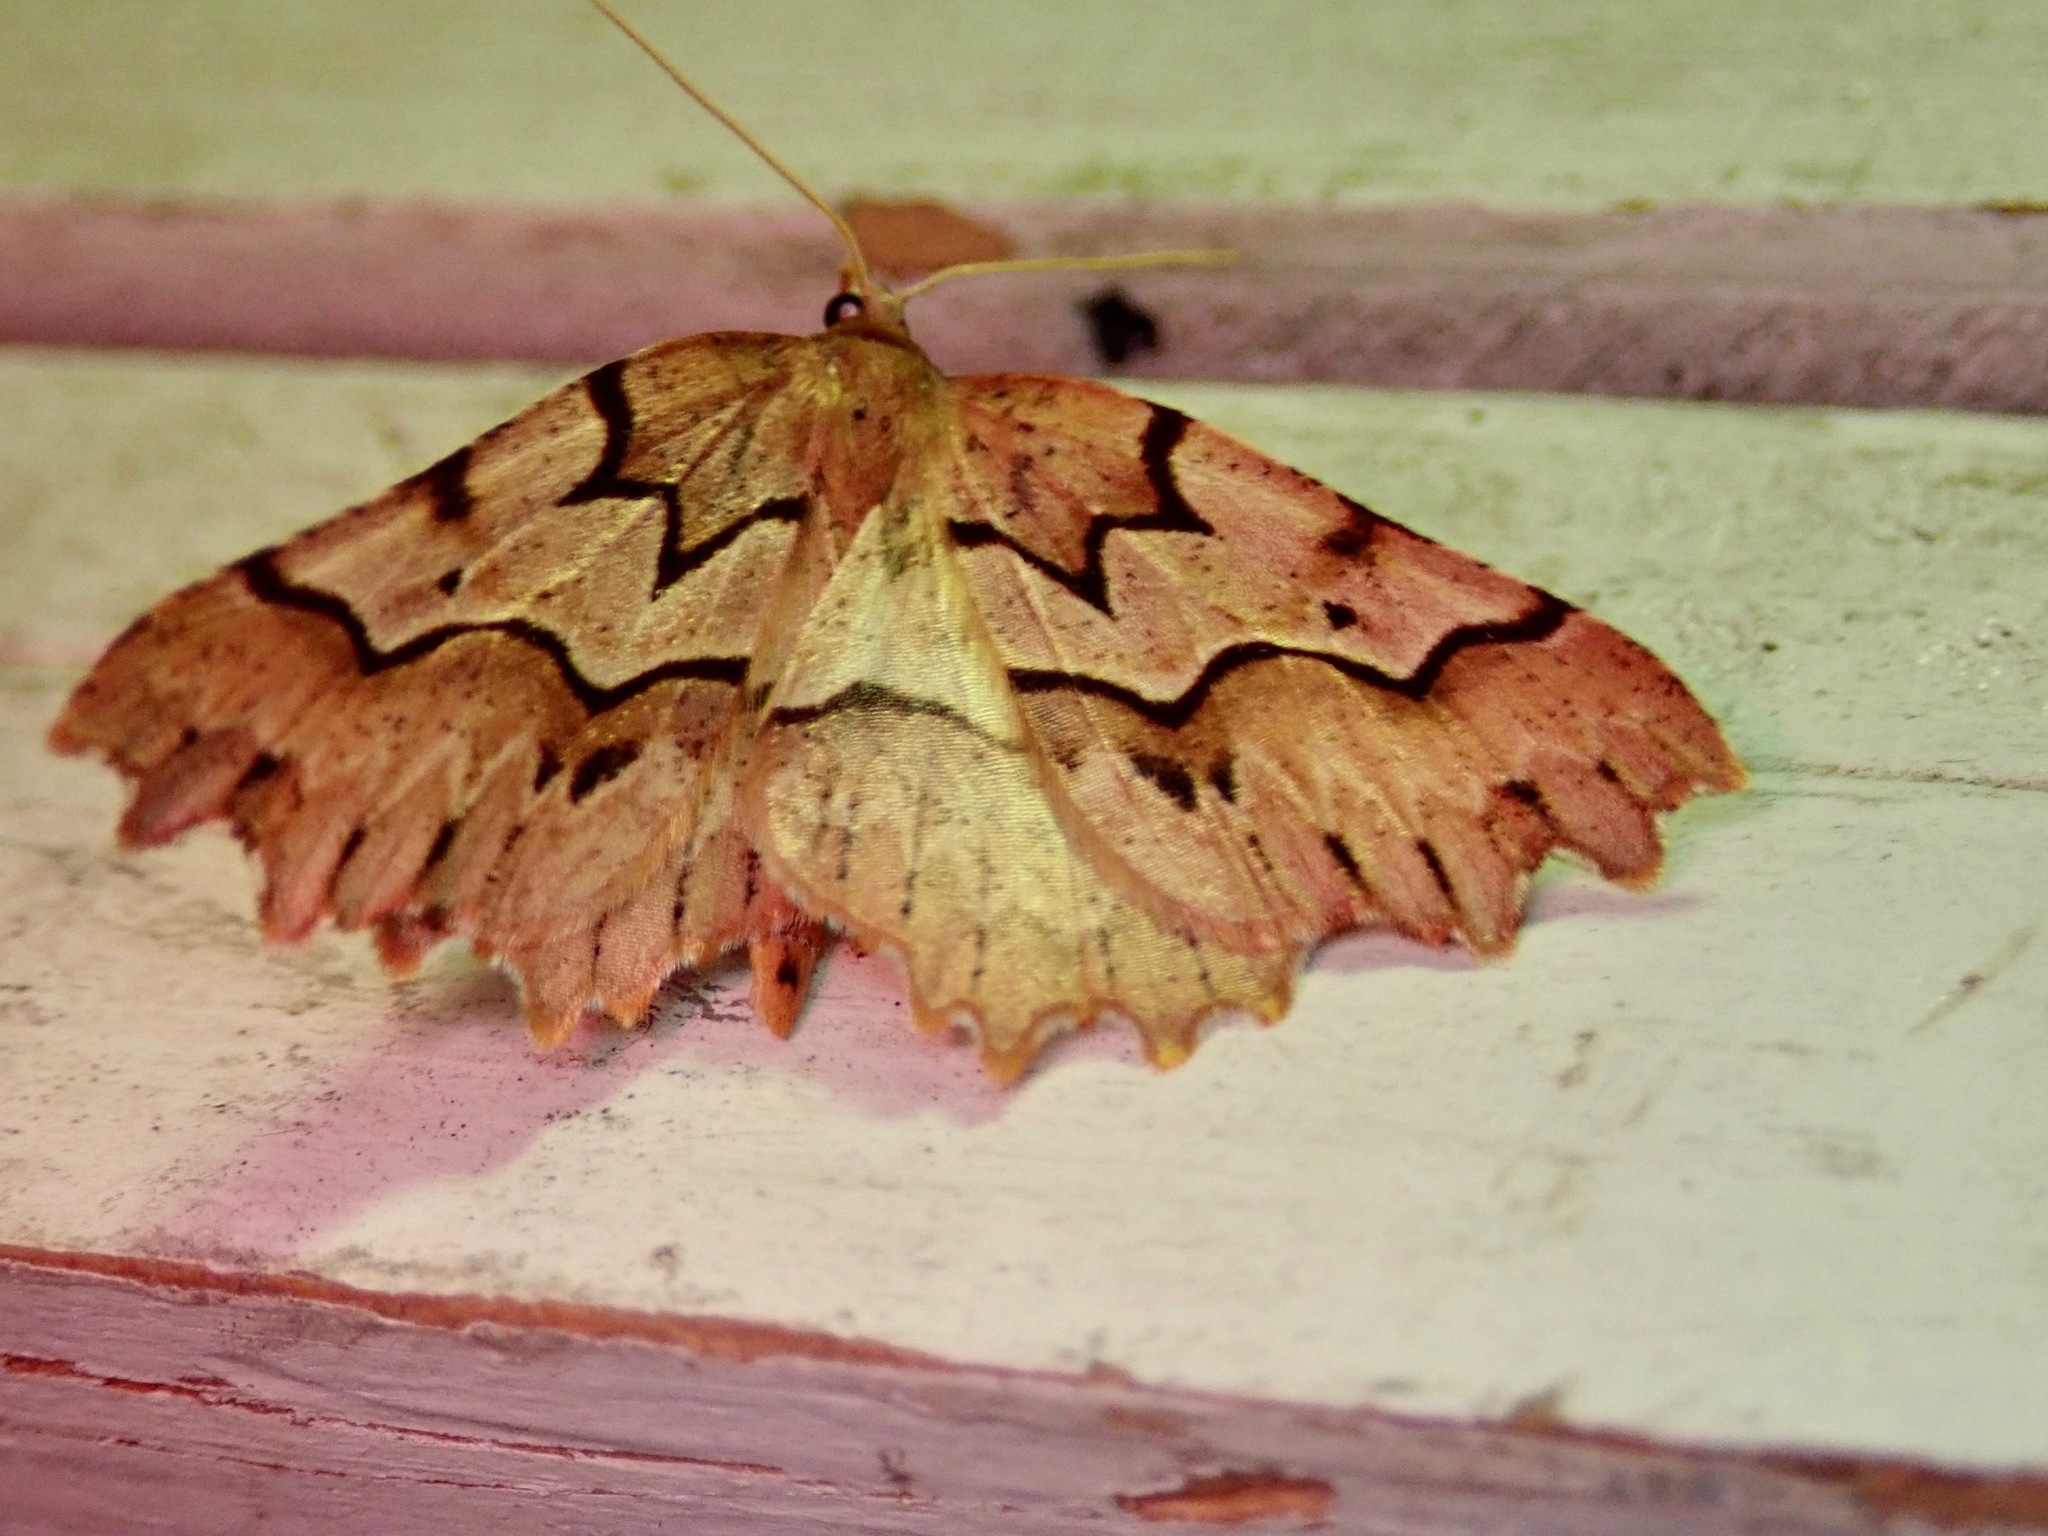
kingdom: Animalia
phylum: Arthropoda
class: Insecta
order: Lepidoptera
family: Geometridae
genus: Ischalis
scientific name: Ischalis fortinata
